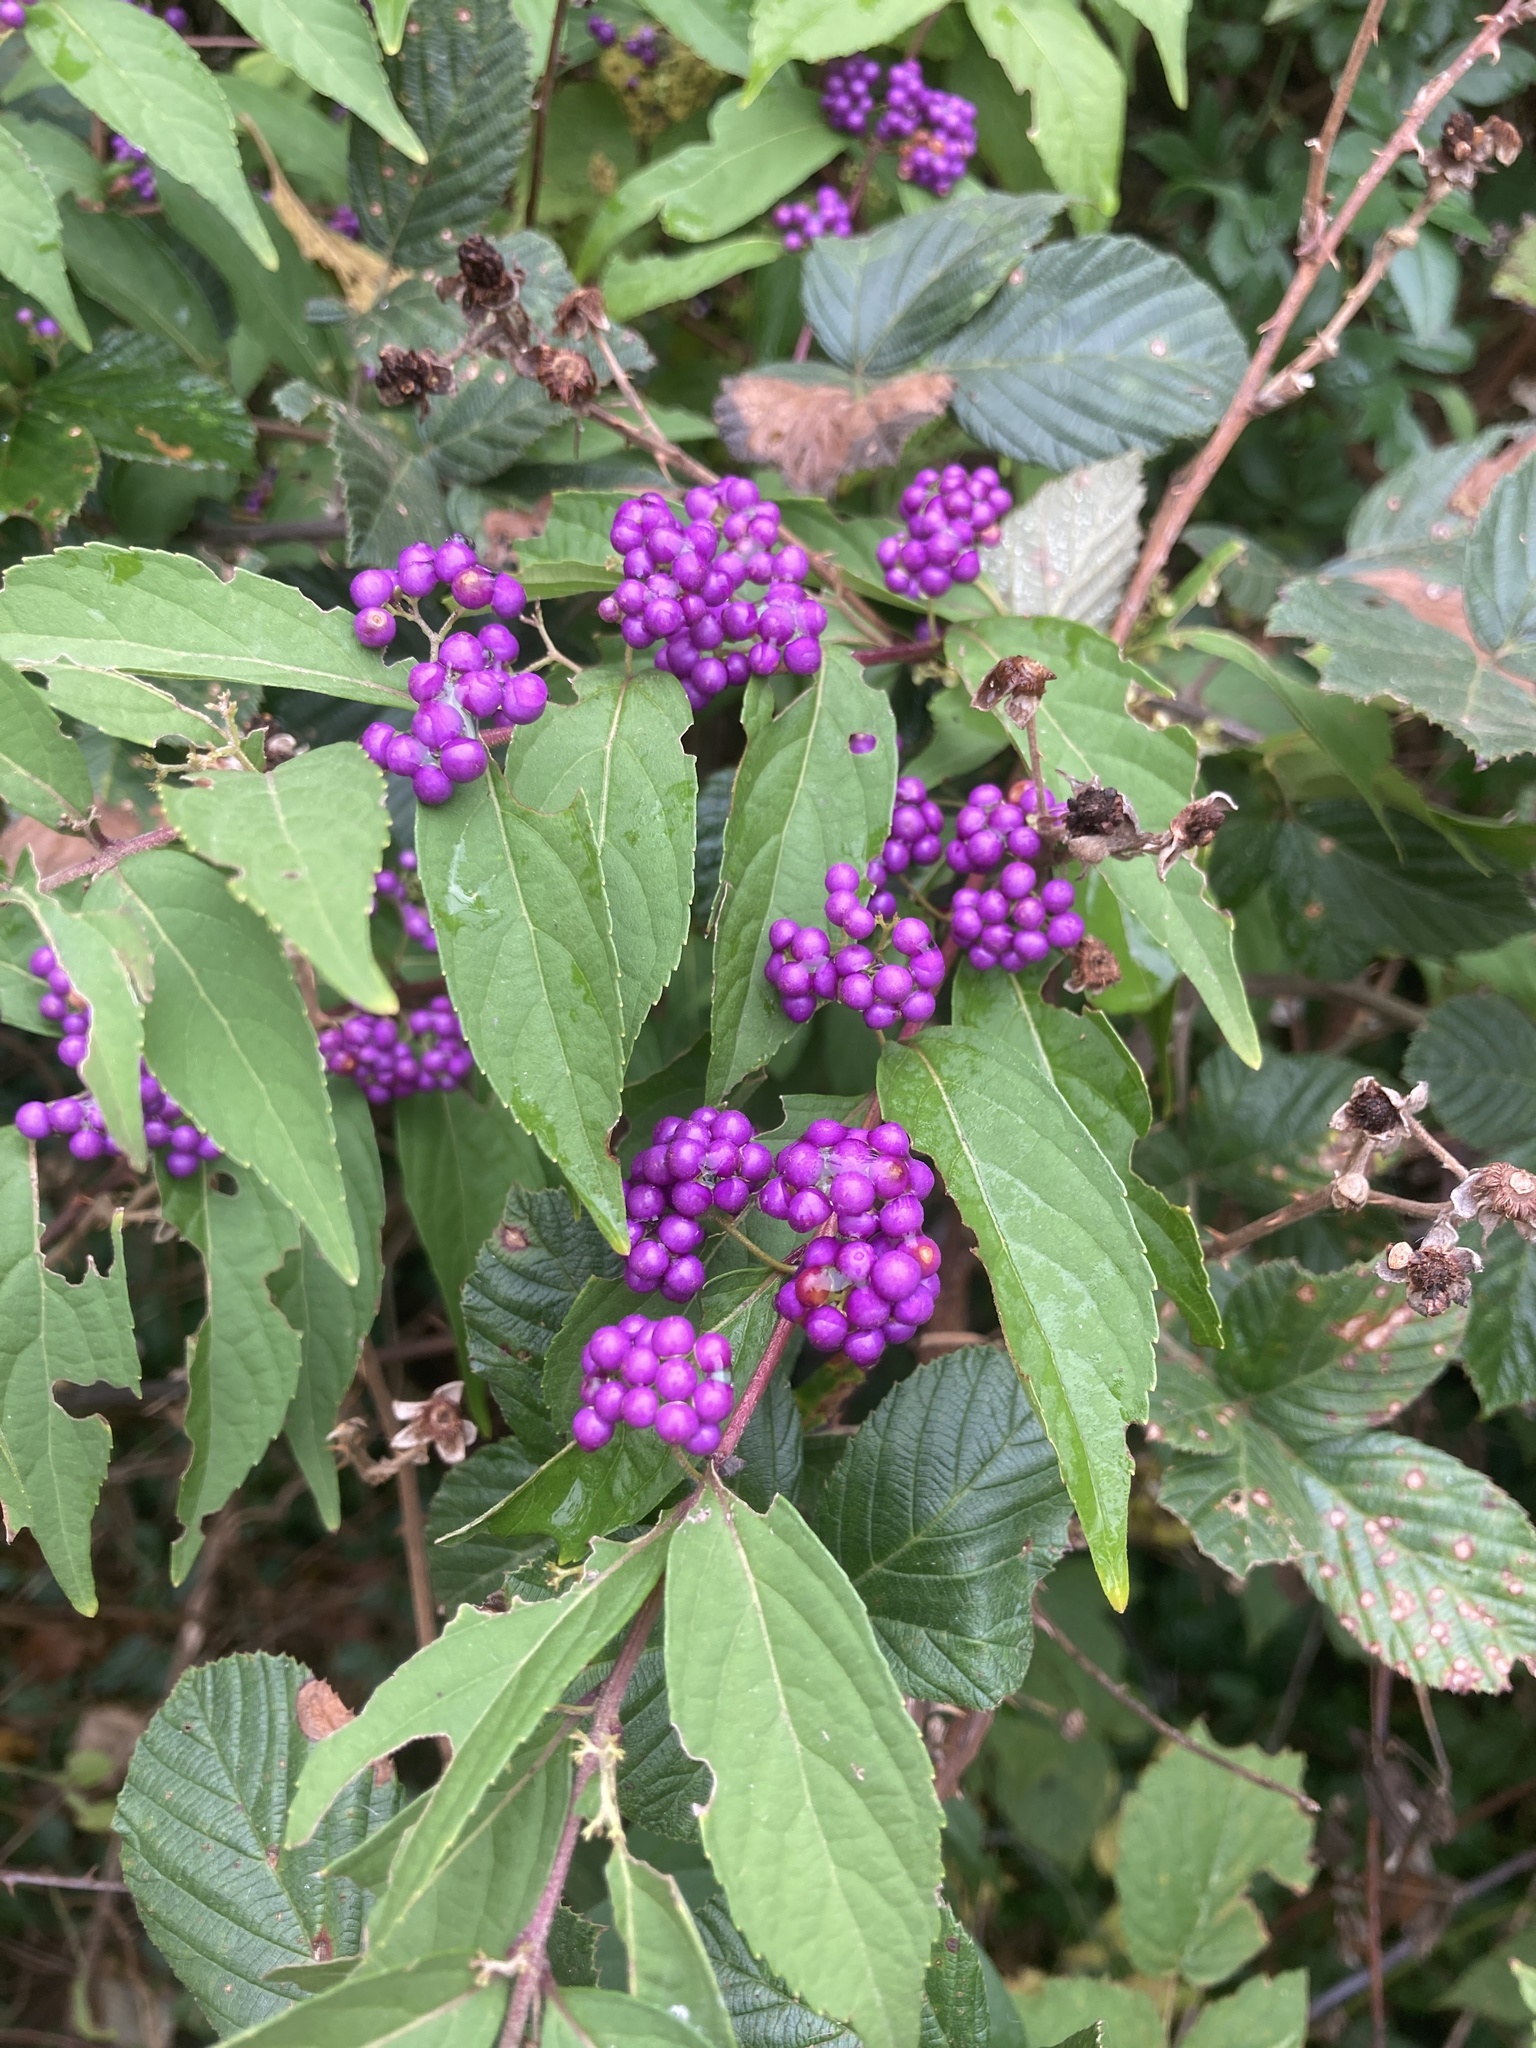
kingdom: Plantae
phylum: Tracheophyta
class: Magnoliopsida
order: Lamiales
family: Lamiaceae
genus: Callicarpa
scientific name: Callicarpa dichotoma
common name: Purple beauty-berry
